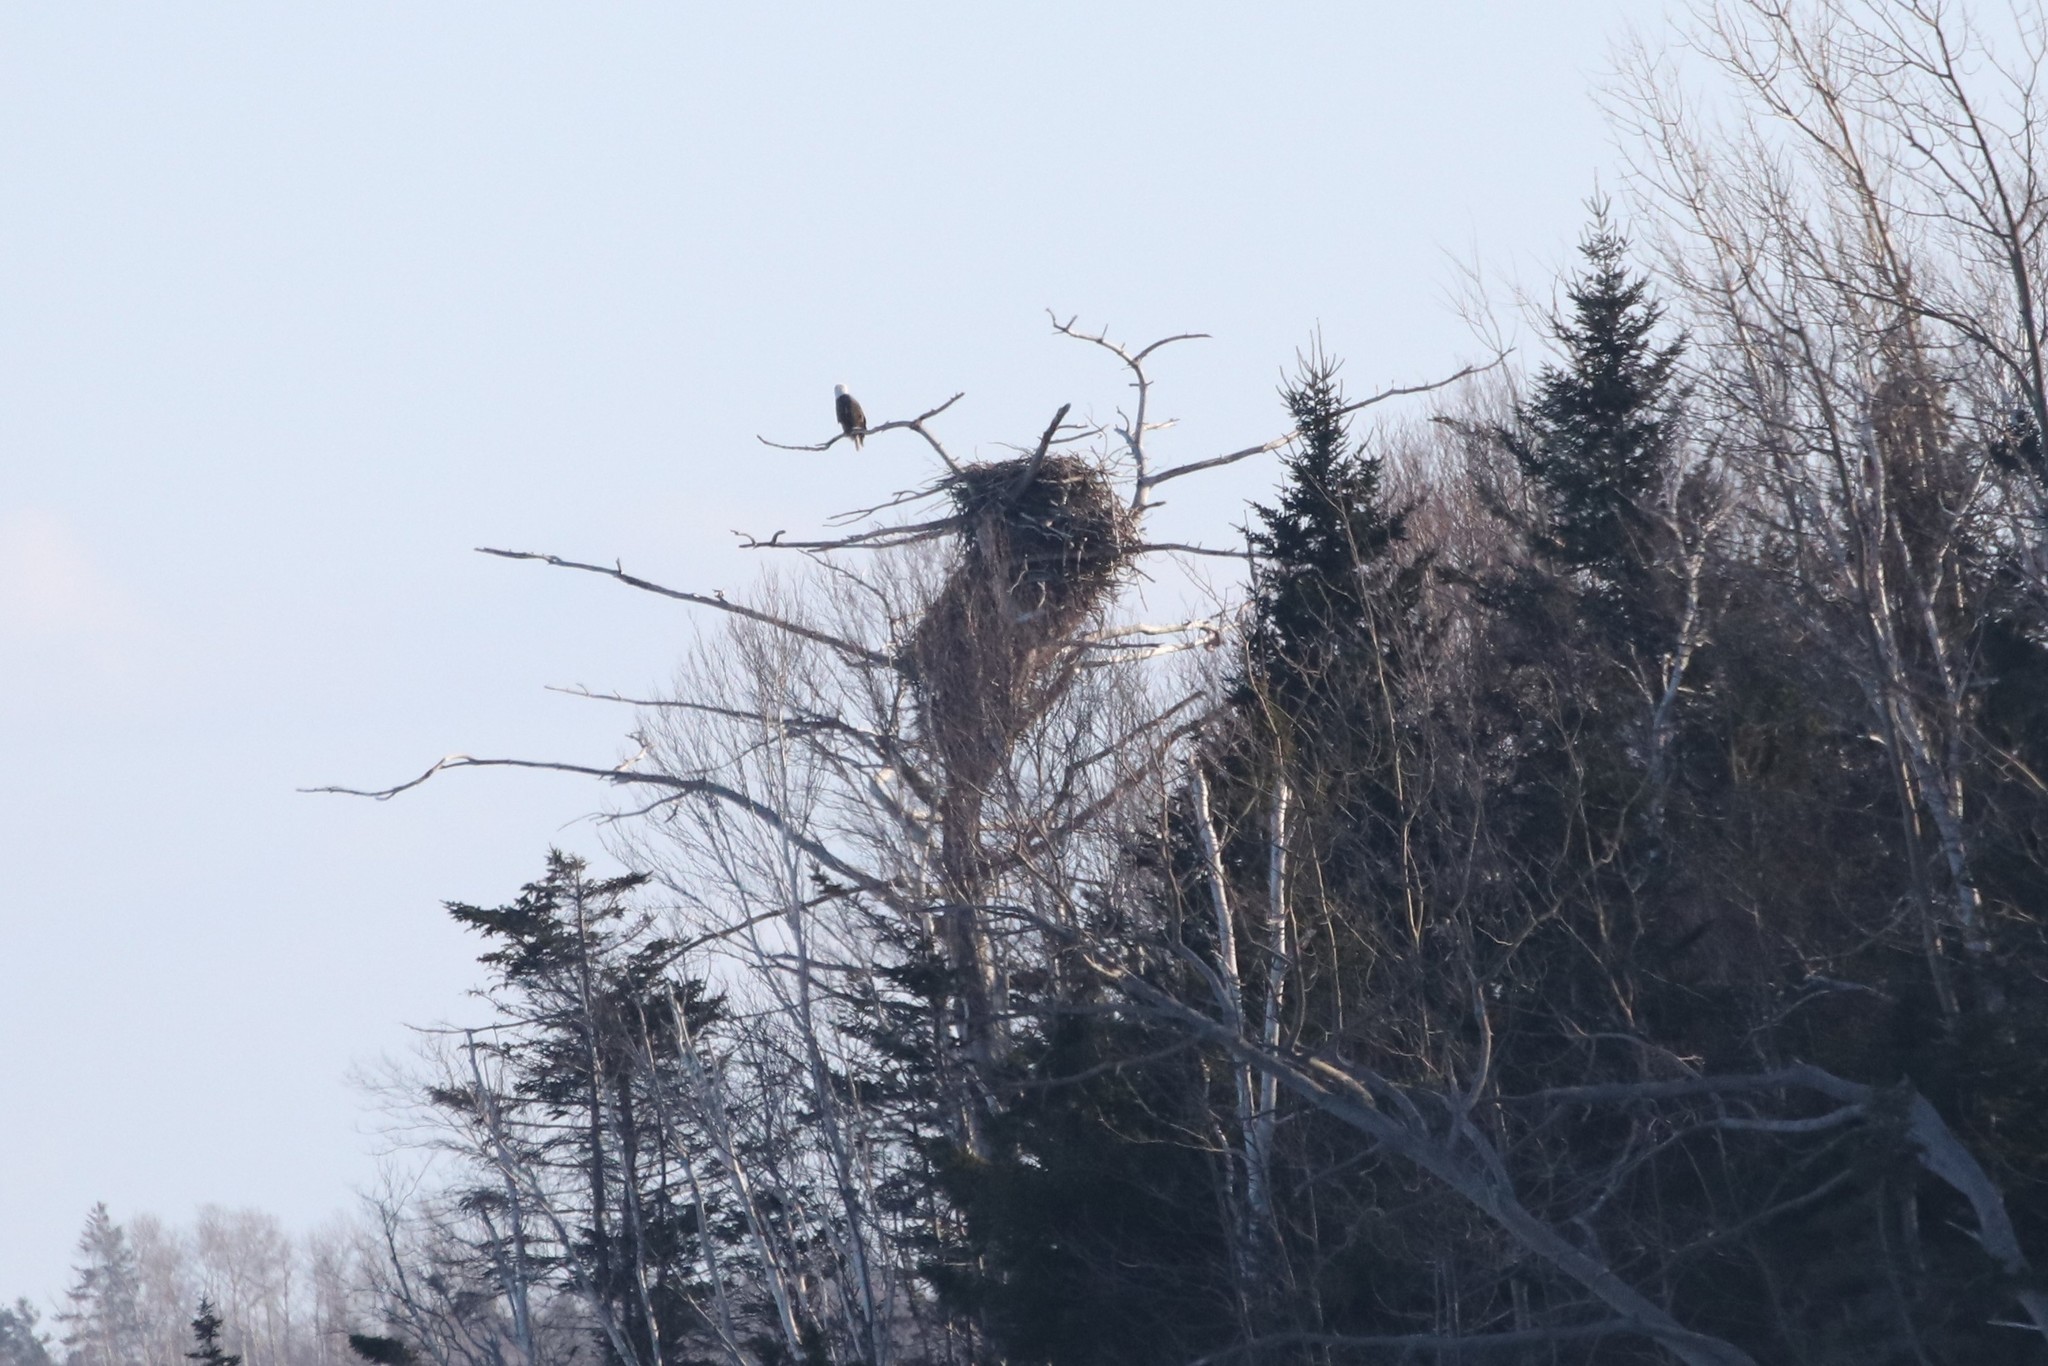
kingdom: Animalia
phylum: Chordata
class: Aves
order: Accipitriformes
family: Accipitridae
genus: Haliaeetus
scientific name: Haliaeetus leucocephalus
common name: Bald eagle
